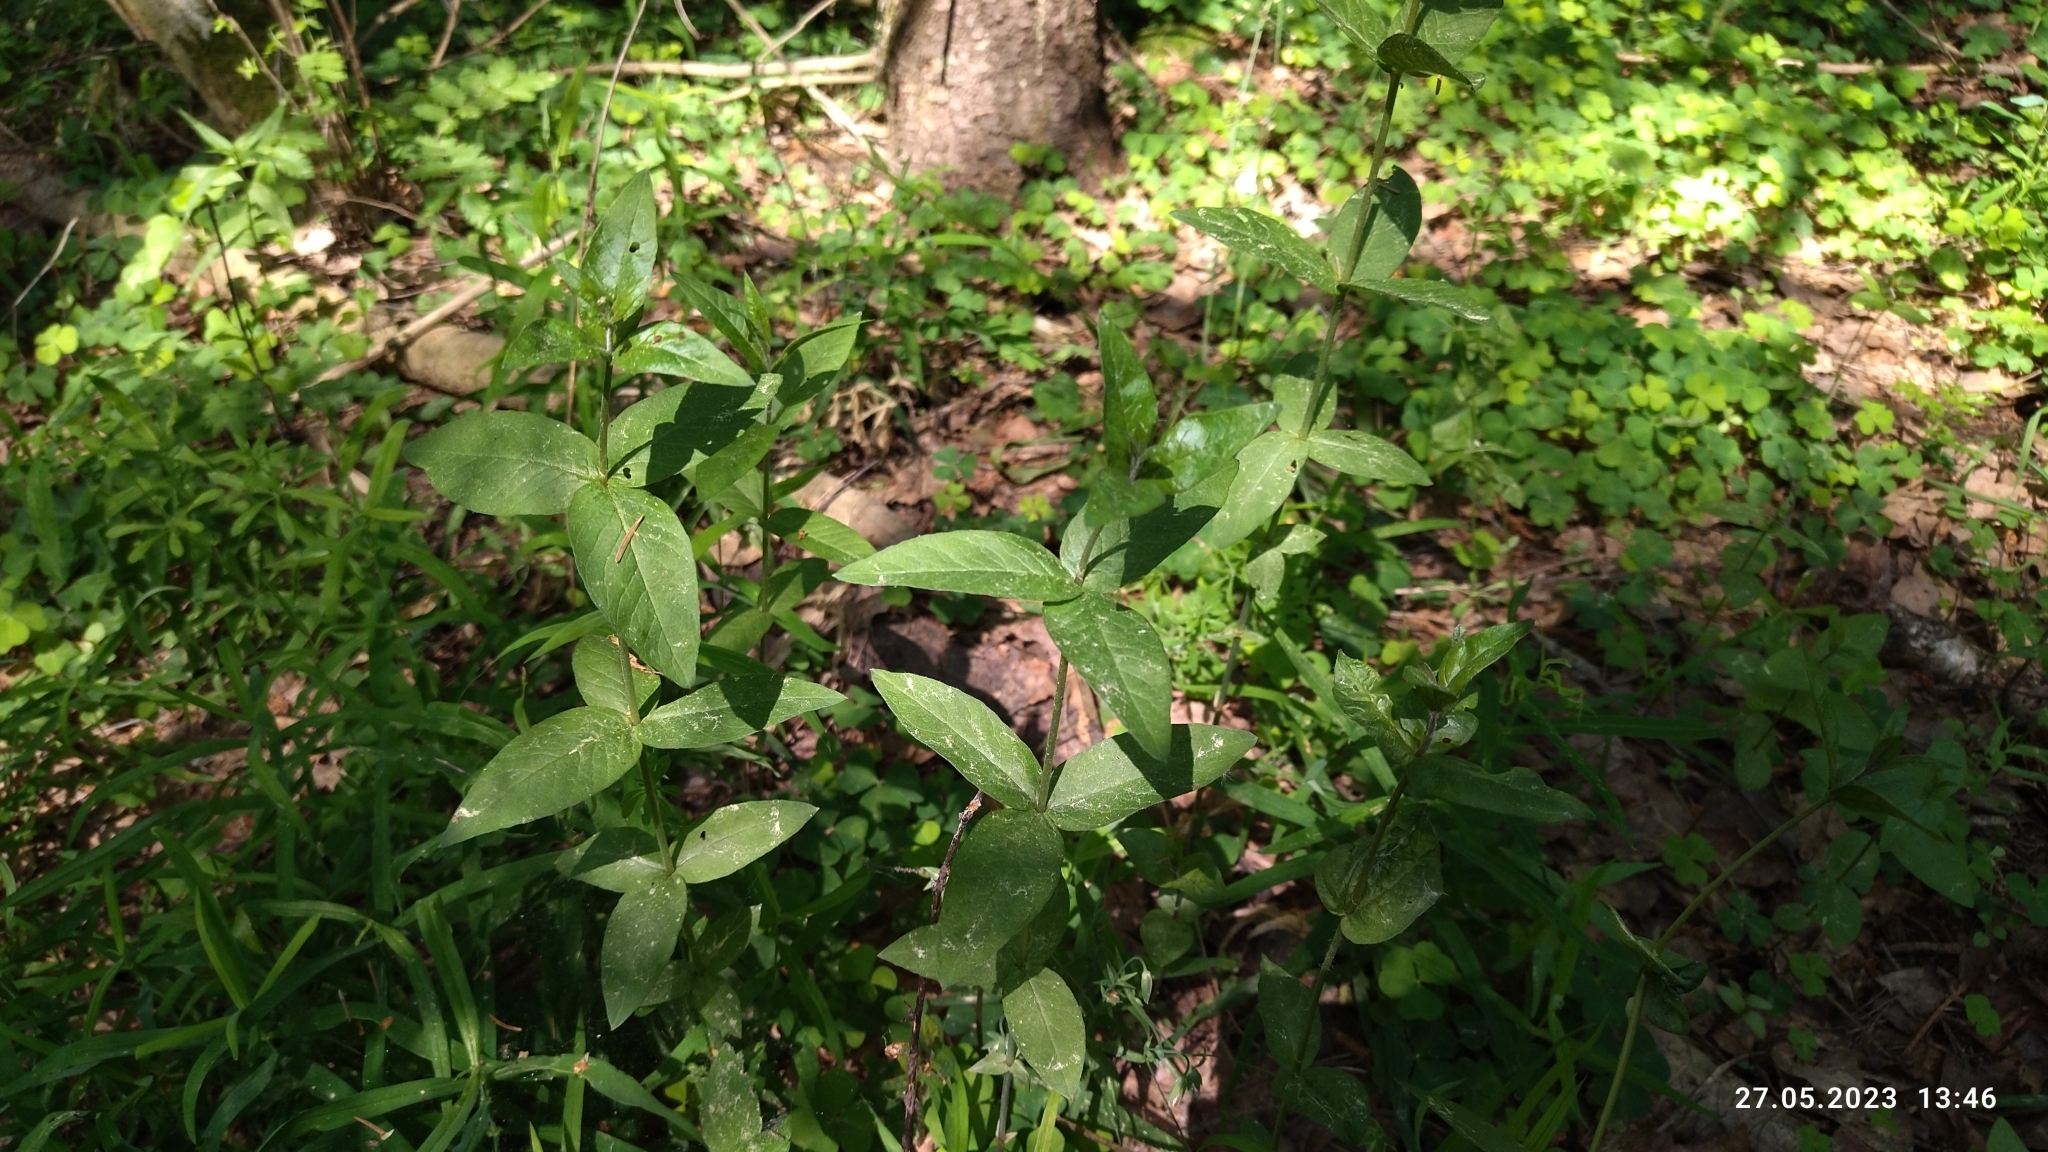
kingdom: Plantae
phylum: Tracheophyta
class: Magnoliopsida
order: Ericales
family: Primulaceae
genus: Lysimachia
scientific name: Lysimachia vulgaris
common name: Yellow loosestrife
